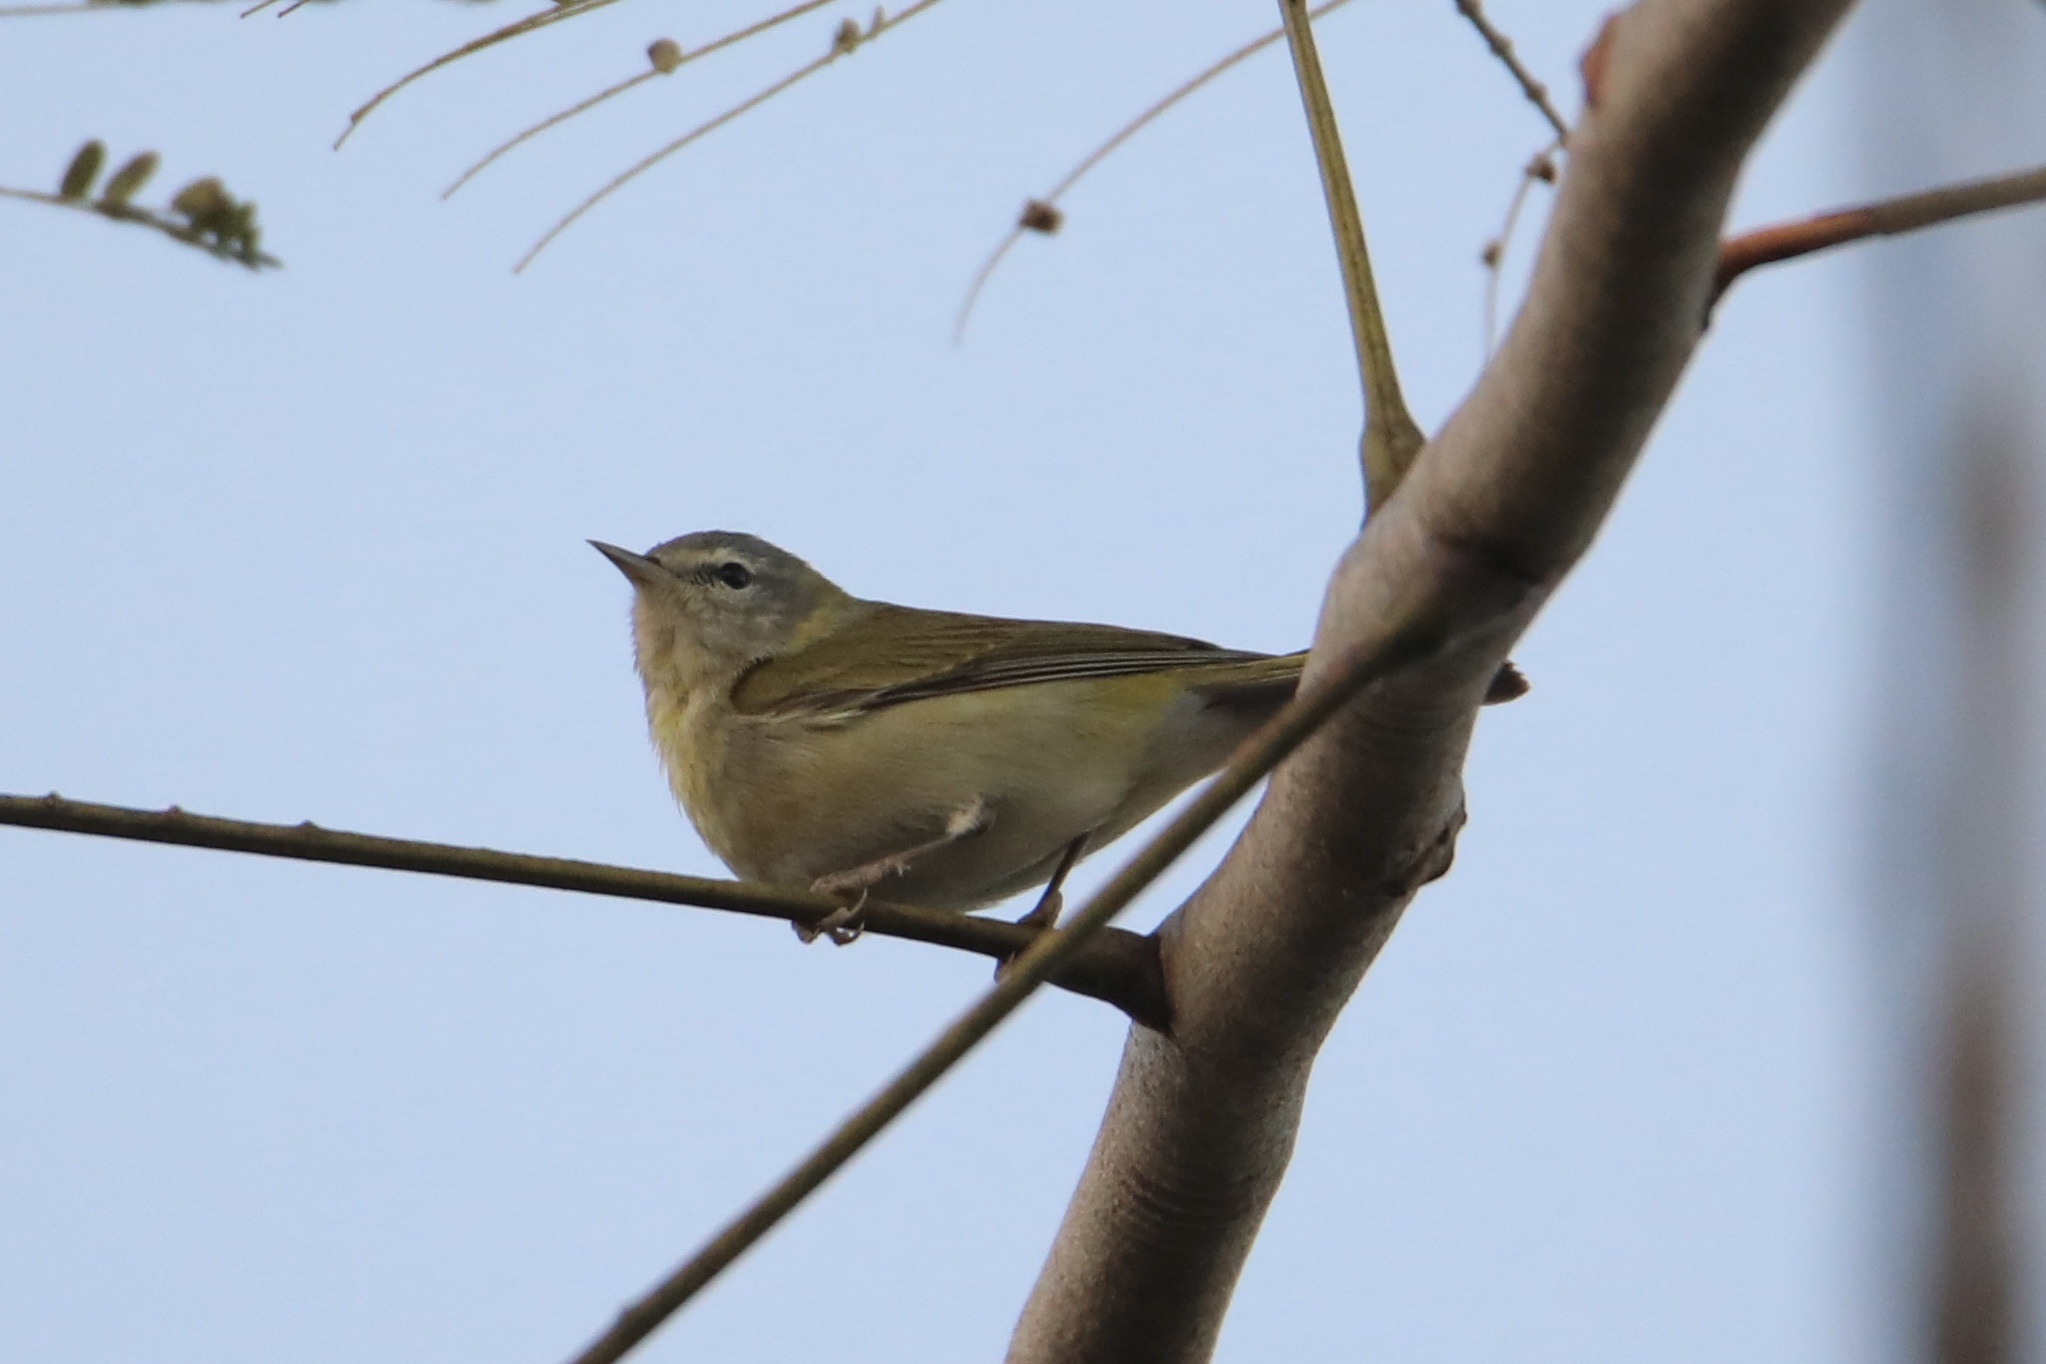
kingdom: Animalia
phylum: Chordata
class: Aves
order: Passeriformes
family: Parulidae
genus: Leiothlypis
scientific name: Leiothlypis peregrina
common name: Tennessee warbler
